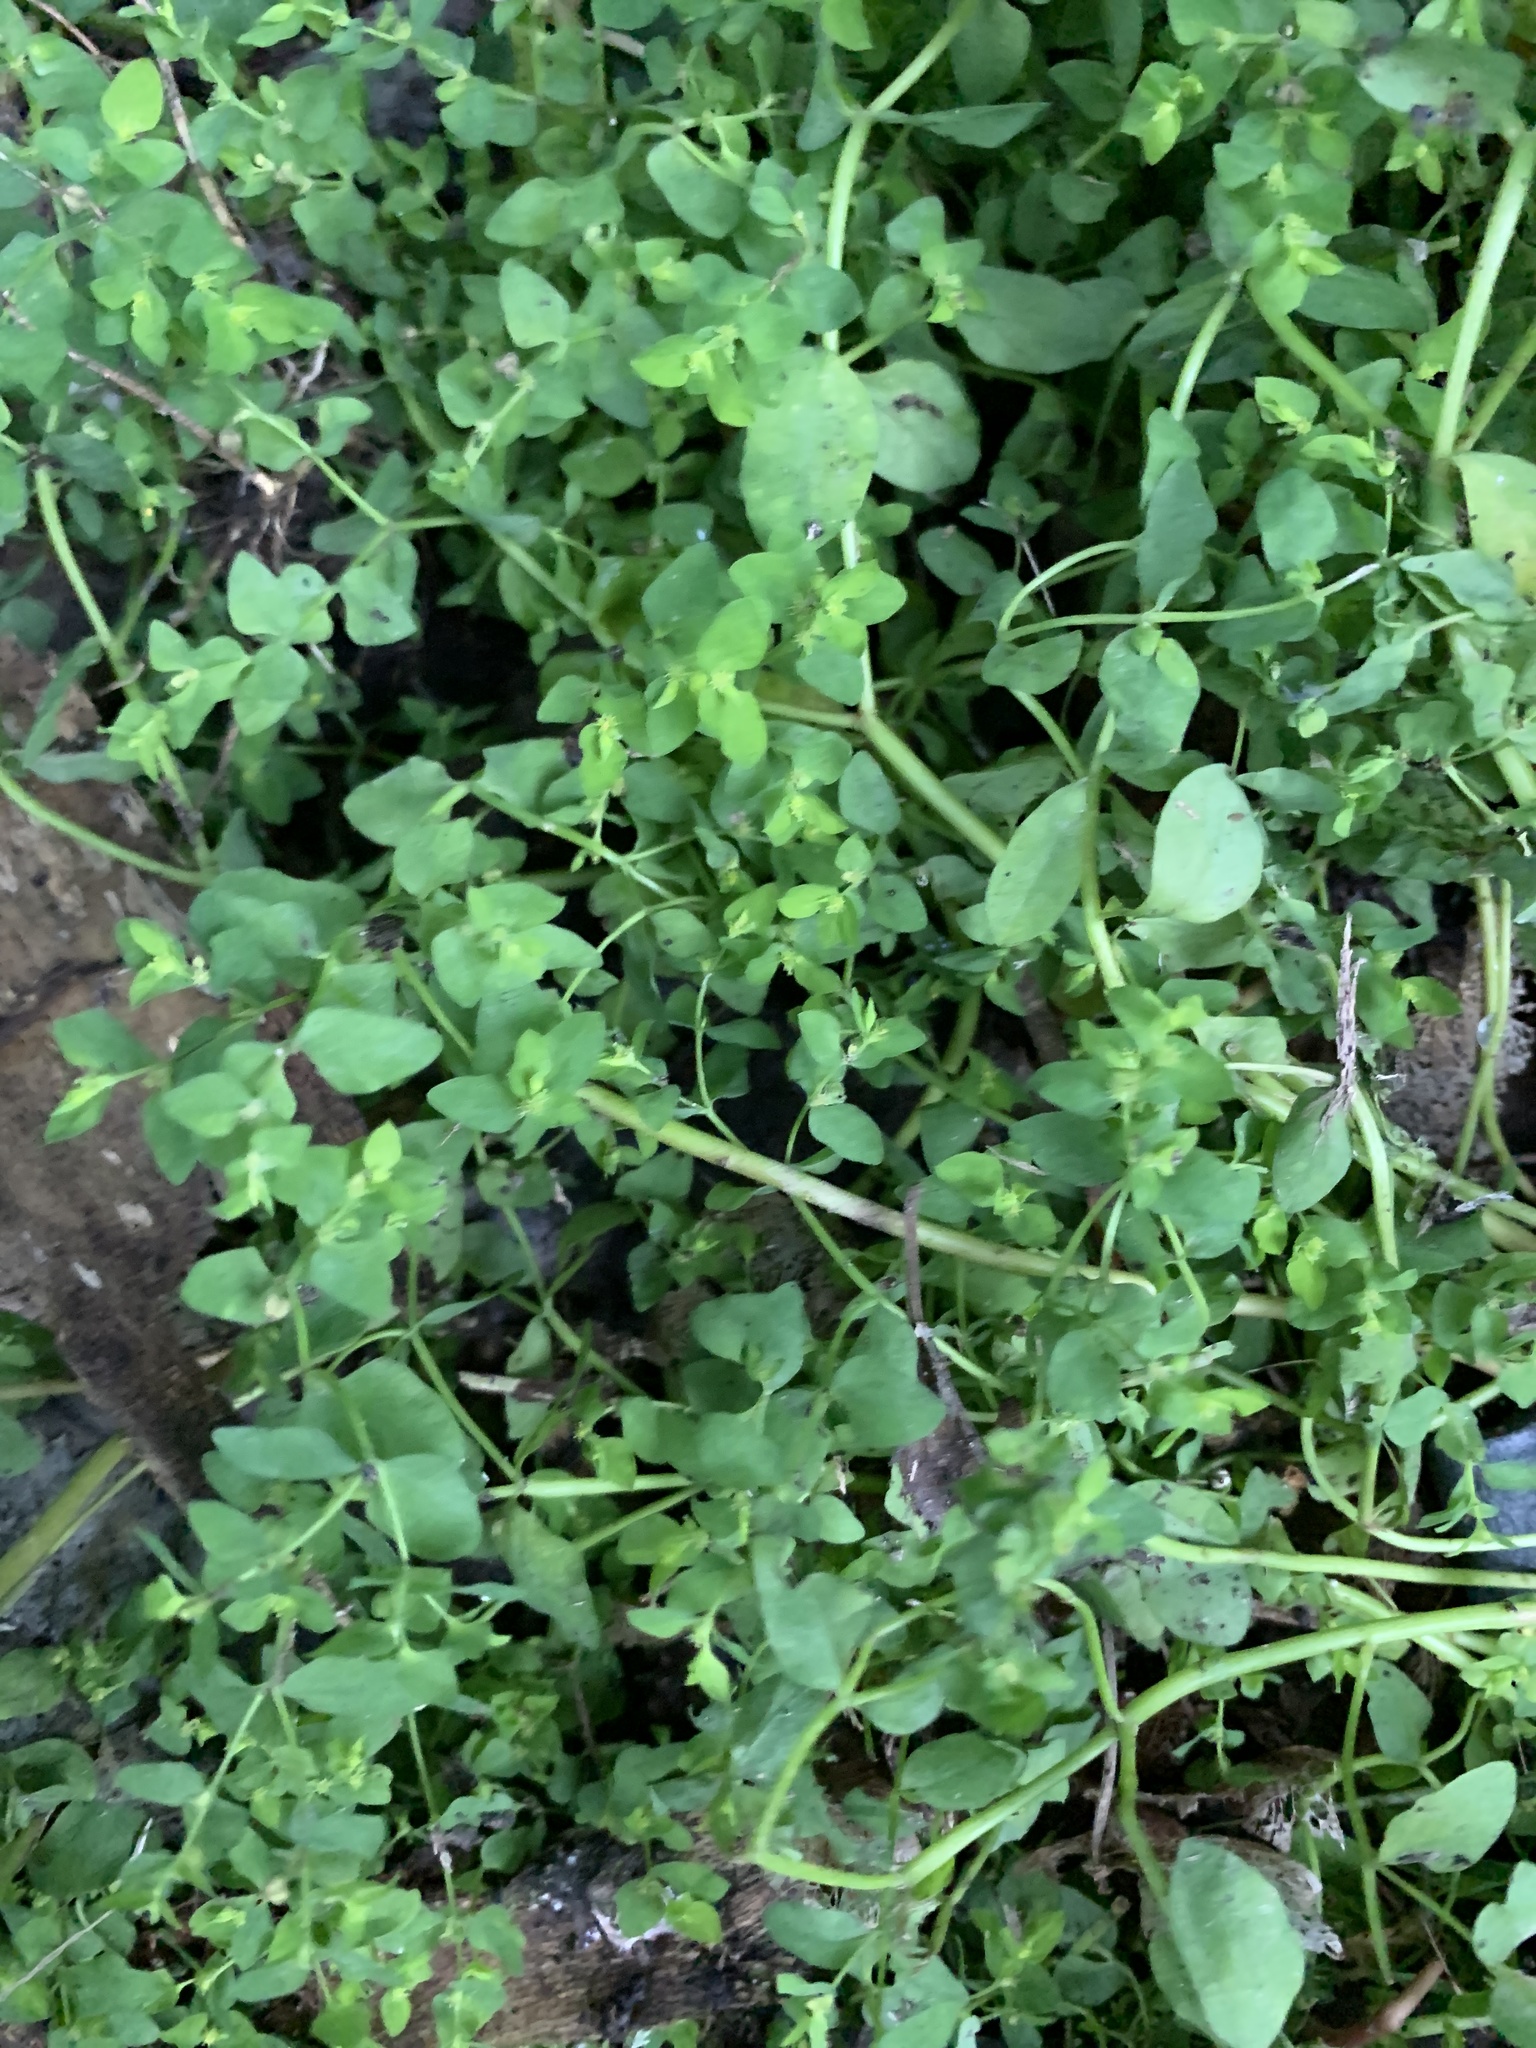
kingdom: Plantae
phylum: Tracheophyta
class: Magnoliopsida
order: Malpighiales
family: Euphorbiaceae
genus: Euphorbia
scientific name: Euphorbia peplus
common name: Petty spurge
